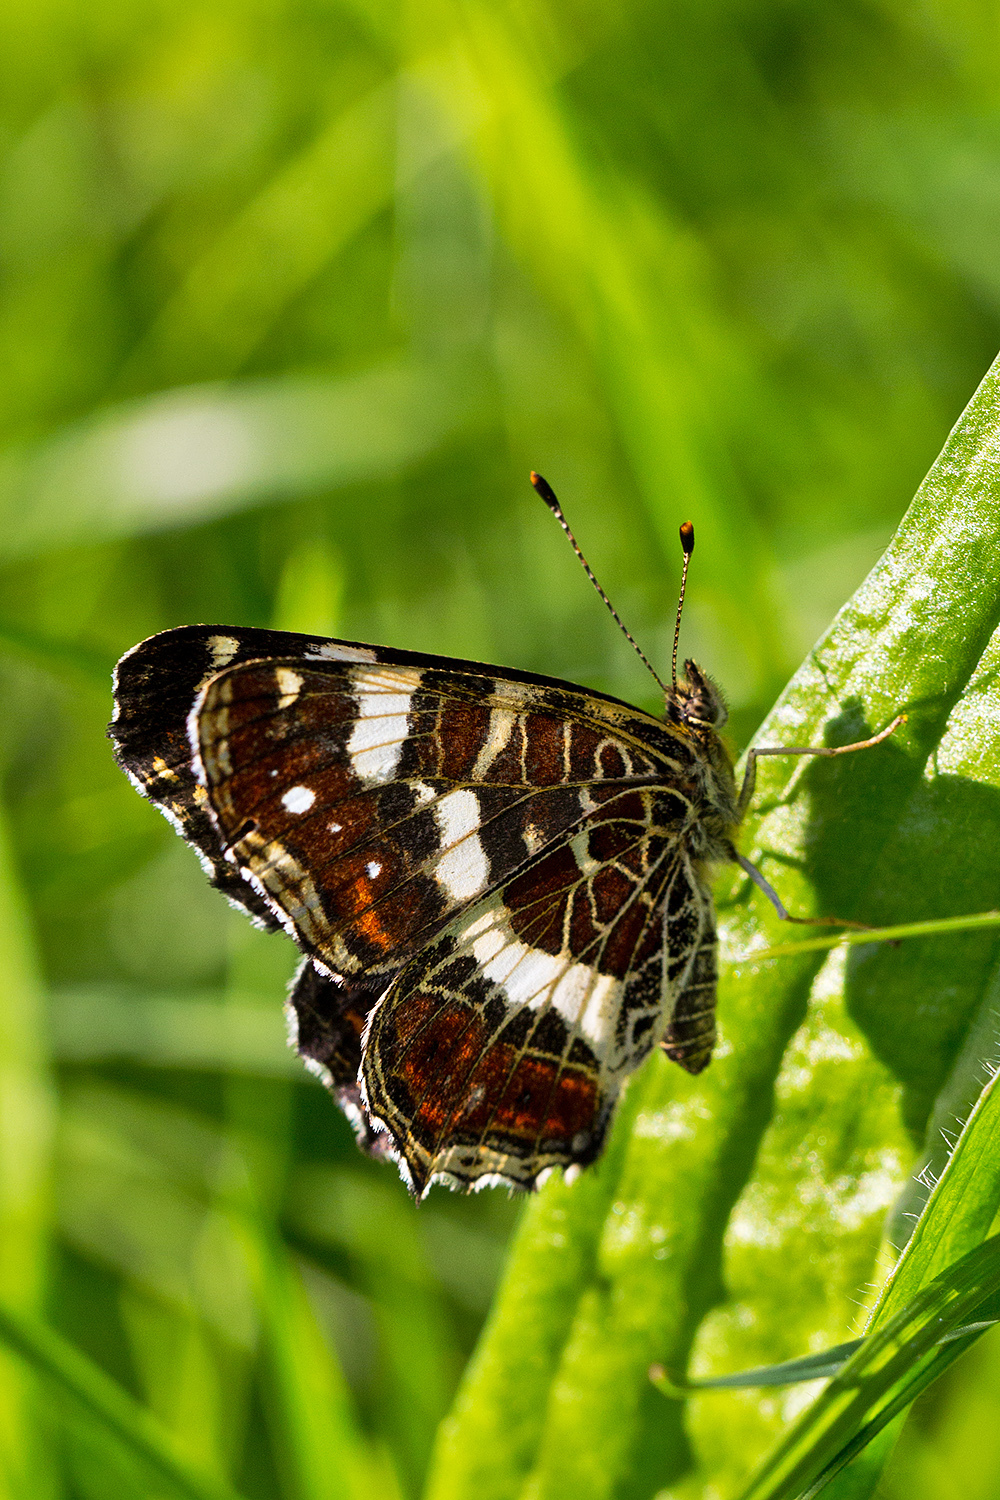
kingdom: Animalia
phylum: Arthropoda
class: Insecta
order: Lepidoptera
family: Nymphalidae
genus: Araschnia
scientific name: Araschnia levana
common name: Map butterfly
